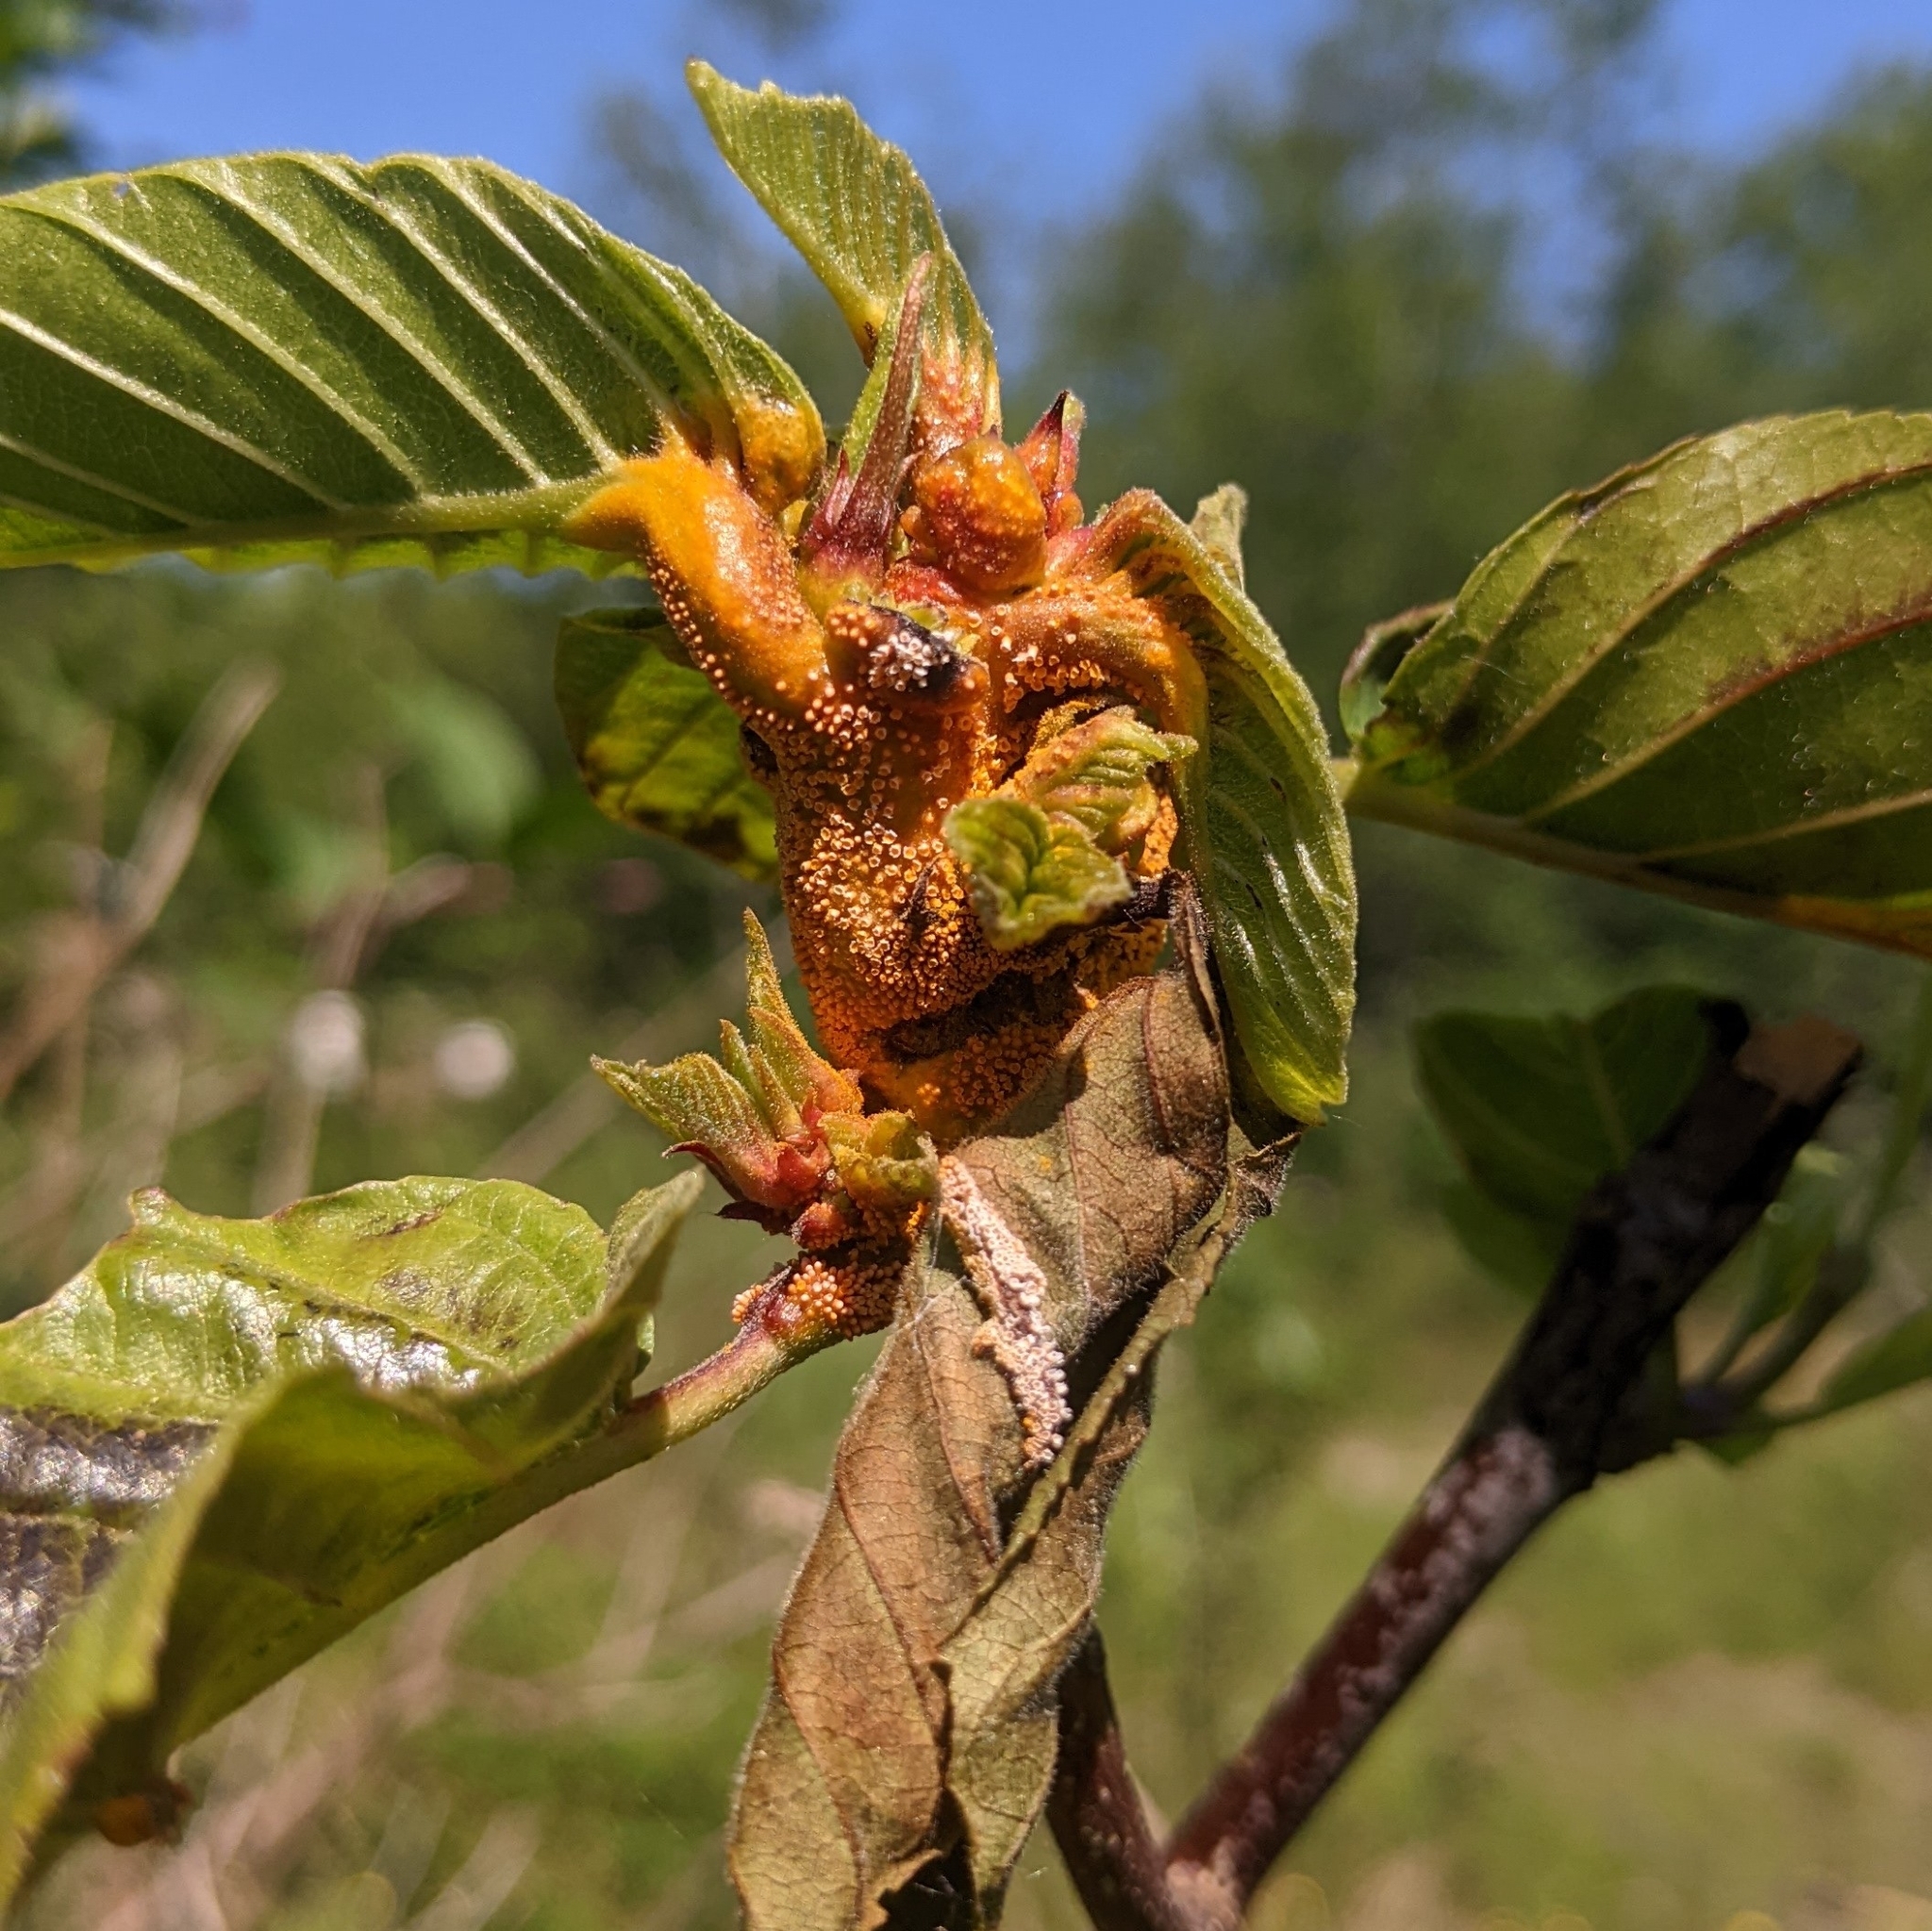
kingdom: Fungi
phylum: Basidiomycota
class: Pucciniomycetes
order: Pucciniales
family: Pucciniaceae
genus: Puccinia
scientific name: Puccinia coronata
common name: Crown rust
